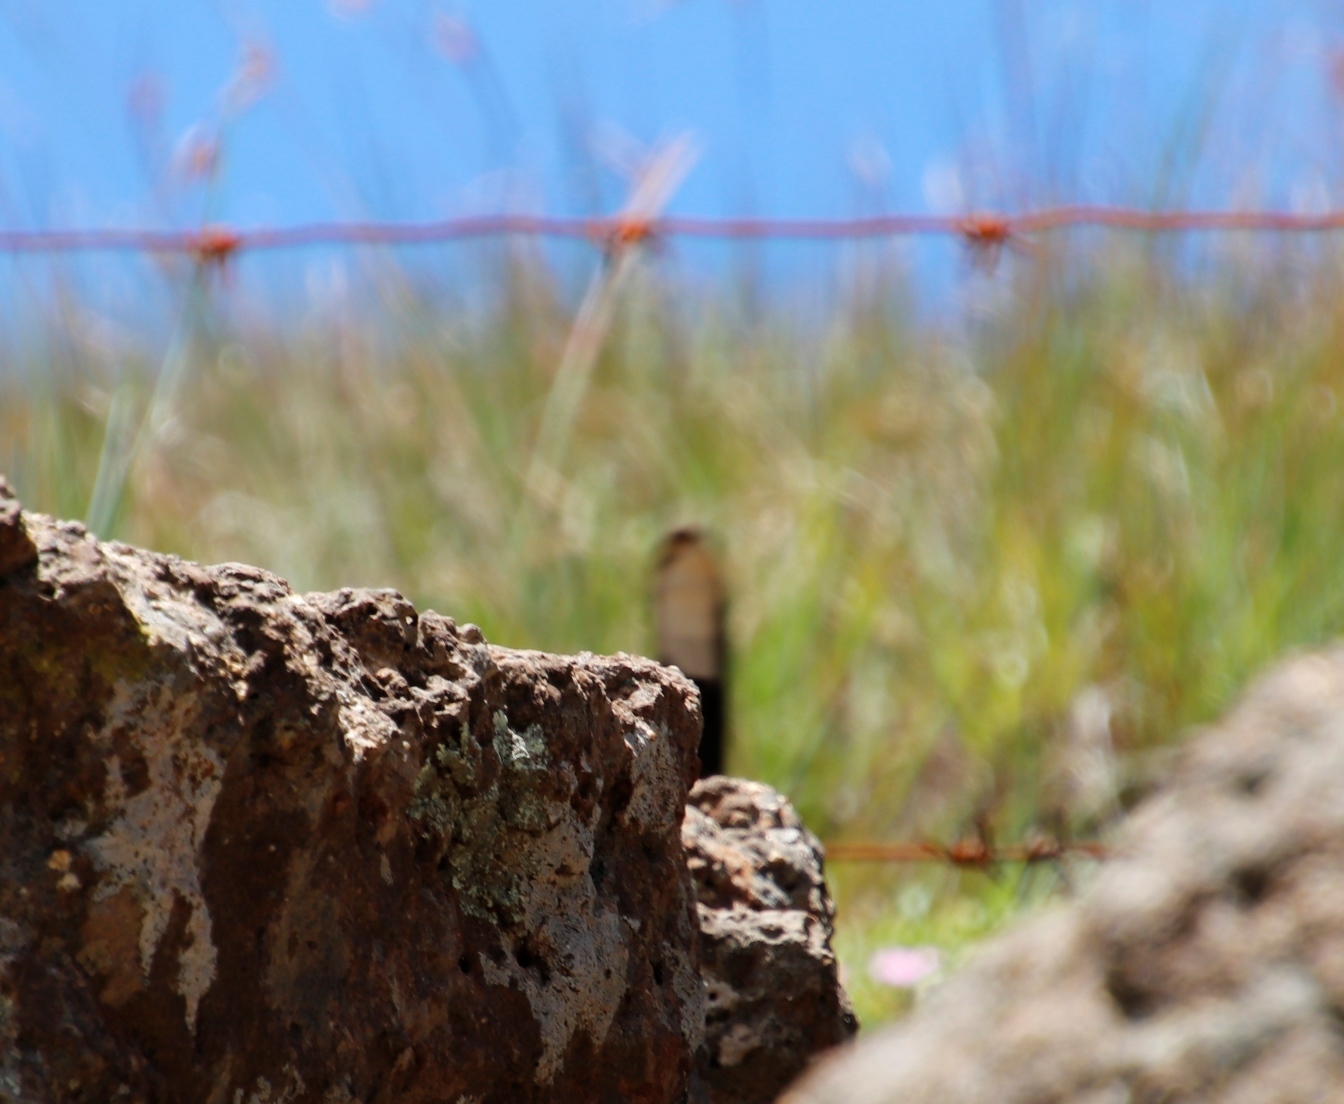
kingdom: Animalia
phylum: Chordata
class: Aves
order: Passeriformes
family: Chaetopidae
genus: Chaetops
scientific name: Chaetops aurantius
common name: Drakensberg rockjumper
